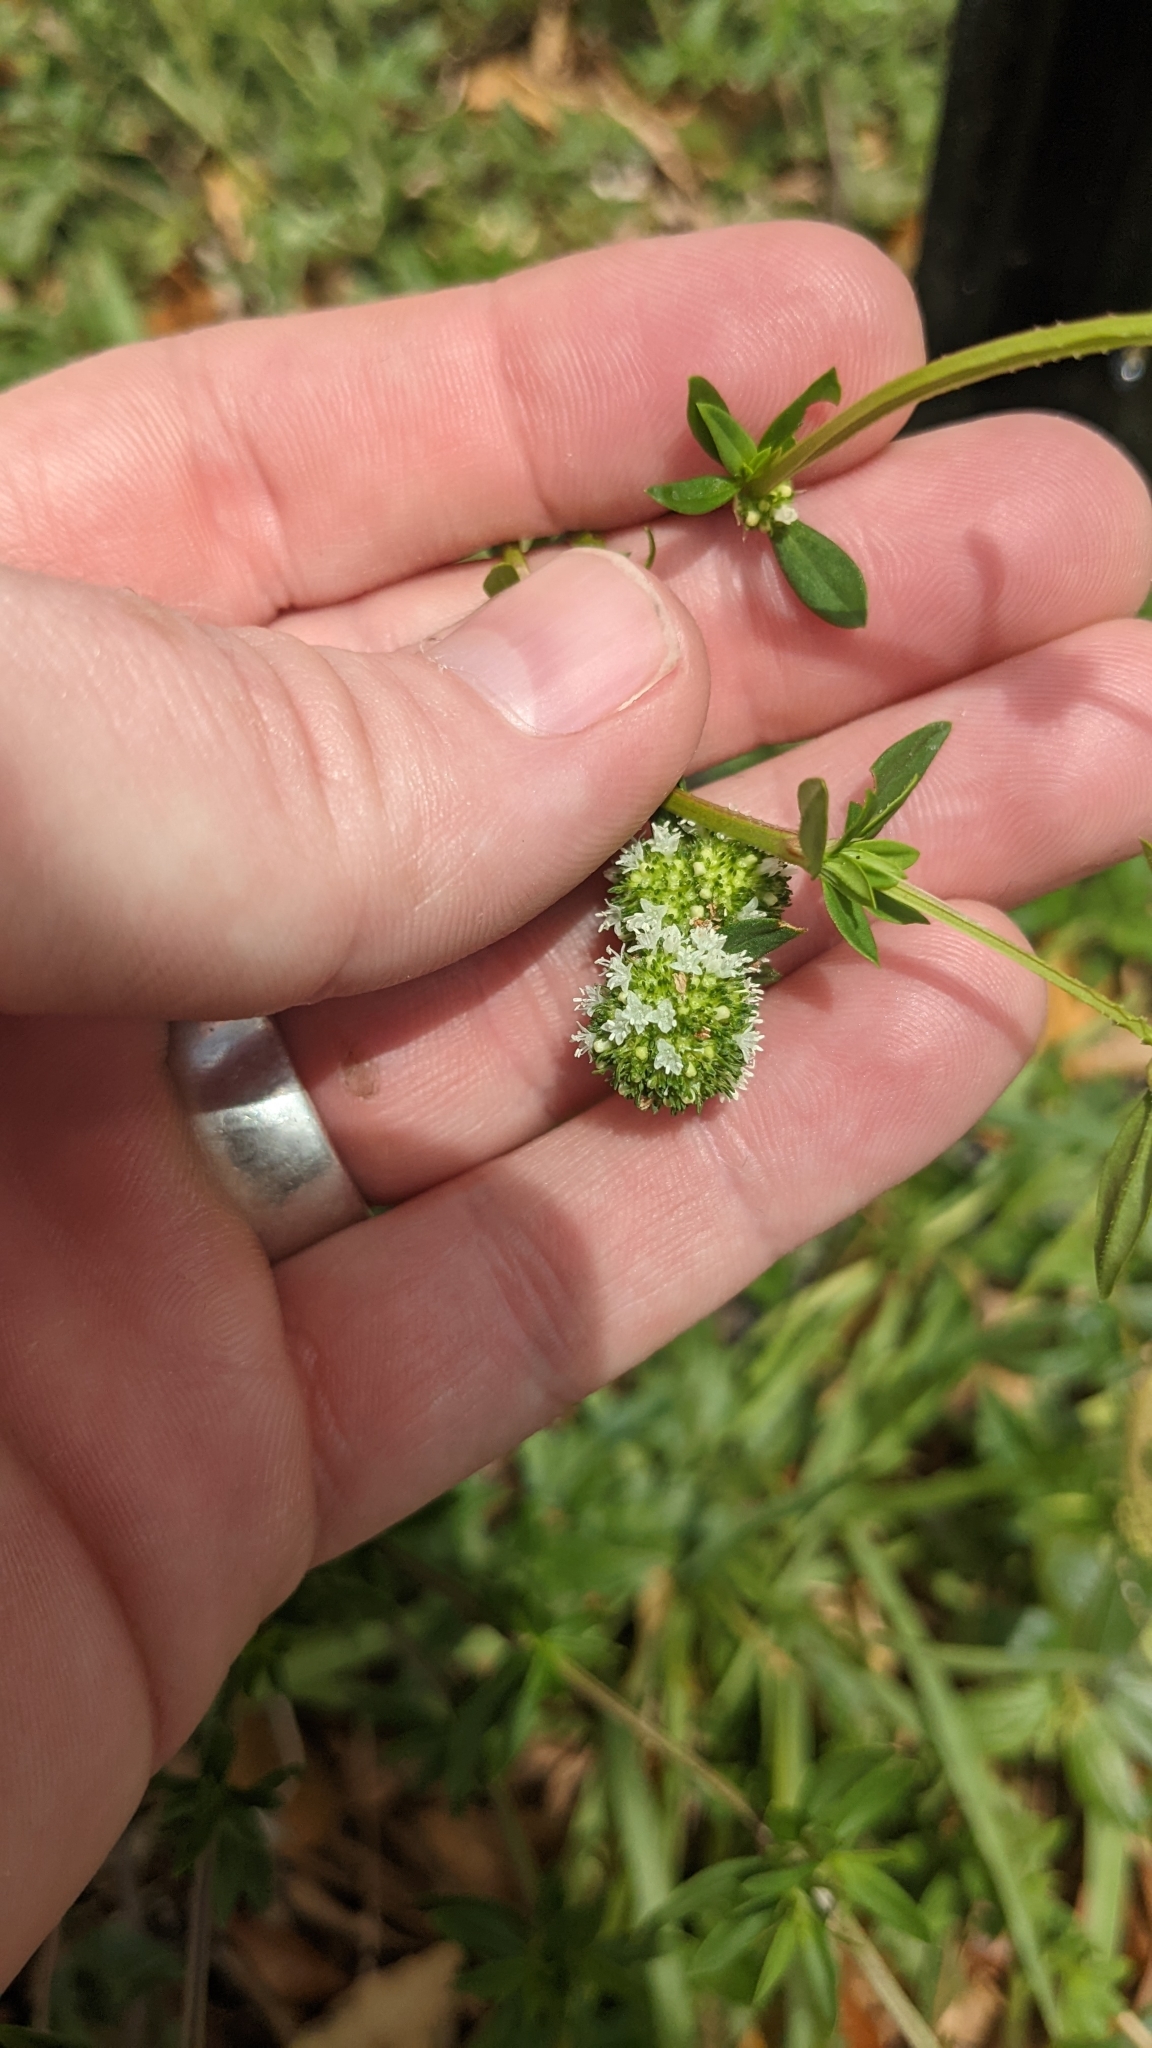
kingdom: Plantae
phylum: Tracheophyta
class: Magnoliopsida
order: Gentianales
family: Rubiaceae
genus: Spermacoce
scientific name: Spermacoce verticillata
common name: Shrubby false buttonweed
